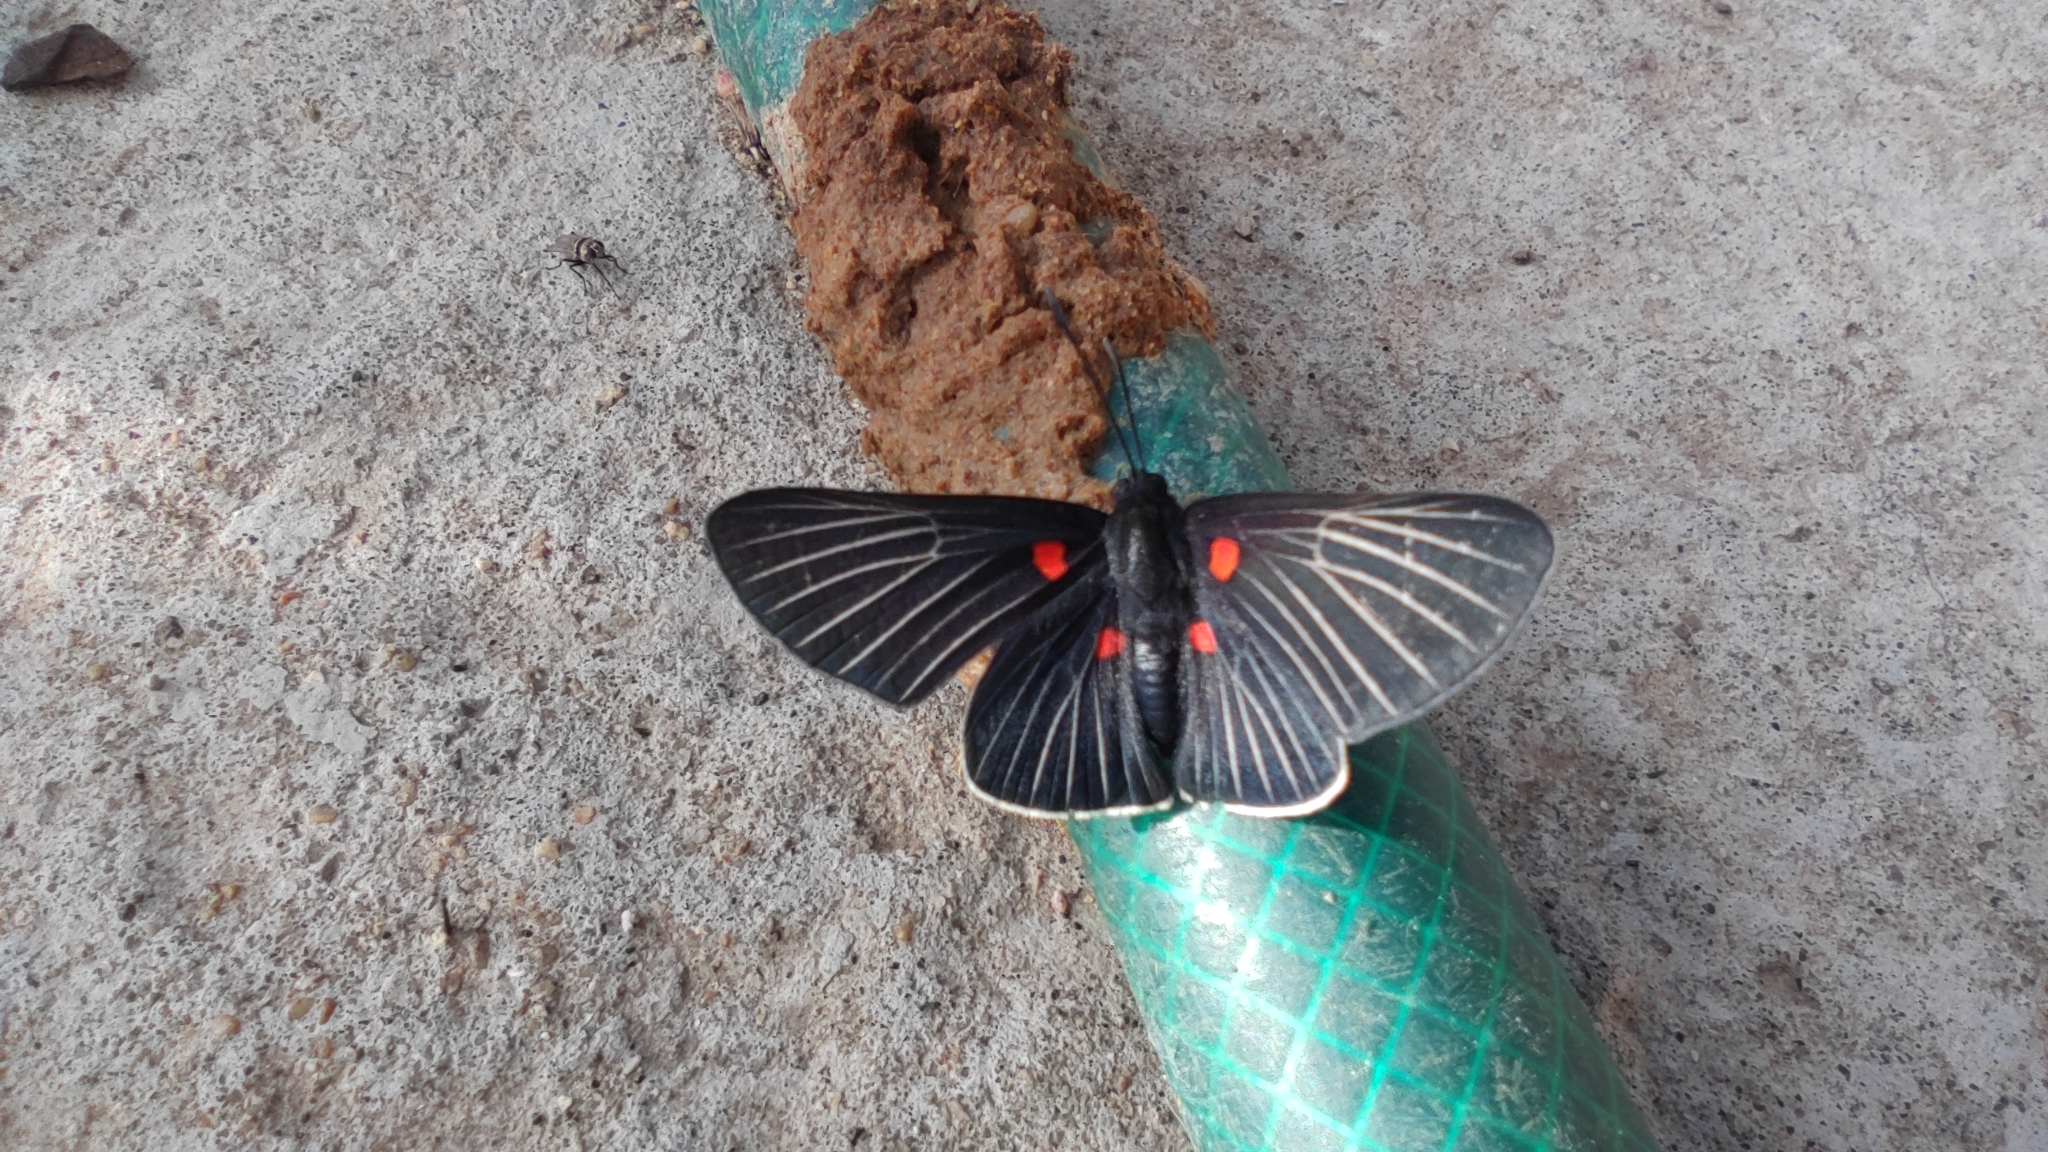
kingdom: Animalia
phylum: Arthropoda
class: Insecta
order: Lepidoptera
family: Lycaenidae
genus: Melanis
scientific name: Melanis
